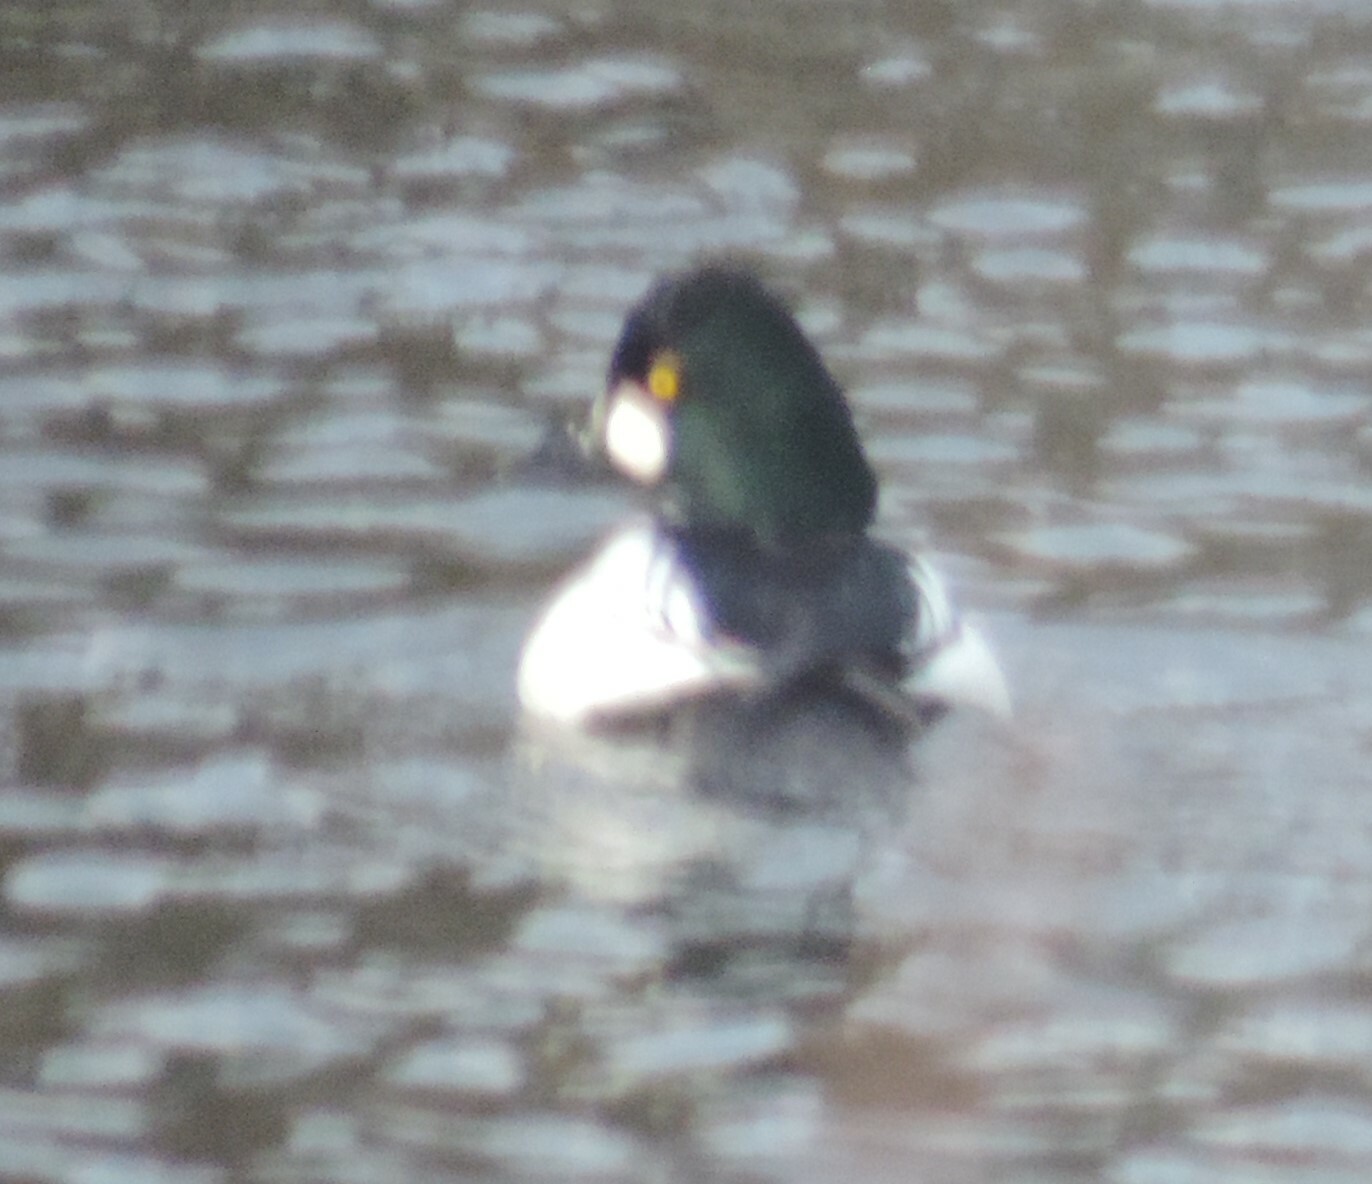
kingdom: Animalia
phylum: Chordata
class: Aves
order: Anseriformes
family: Anatidae
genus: Bucephala
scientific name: Bucephala clangula
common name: Common goldeneye
